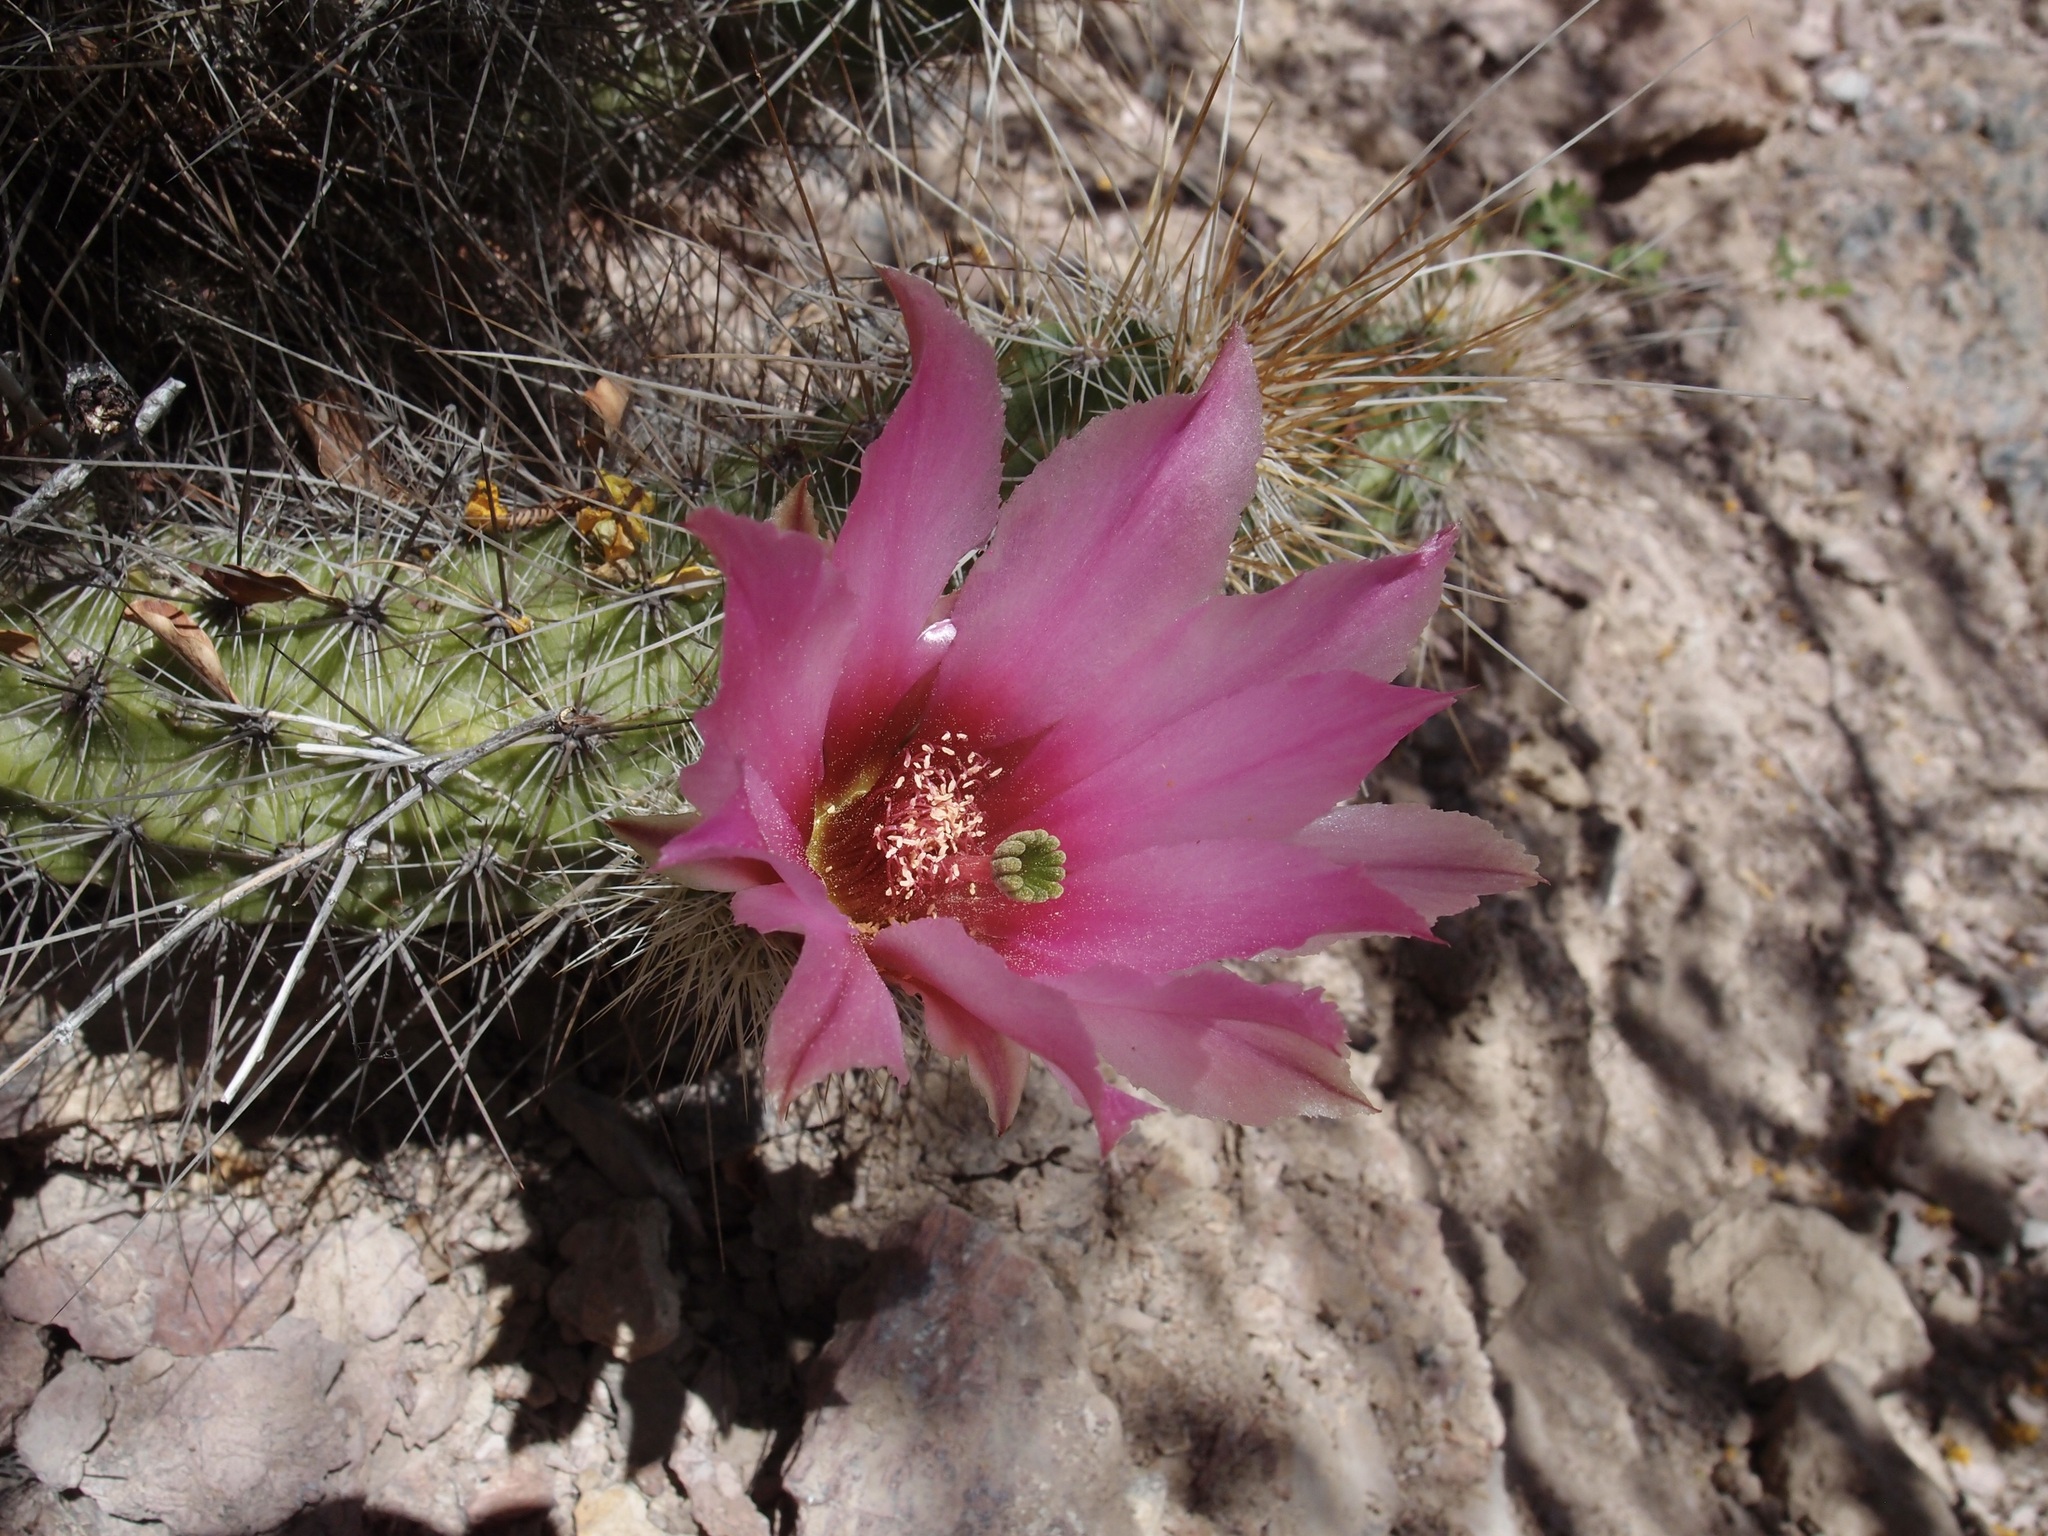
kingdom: Plantae
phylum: Tracheophyta
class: Magnoliopsida
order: Caryophyllales
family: Cactaceae
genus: Echinocereus
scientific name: Echinocereus llanurensis
